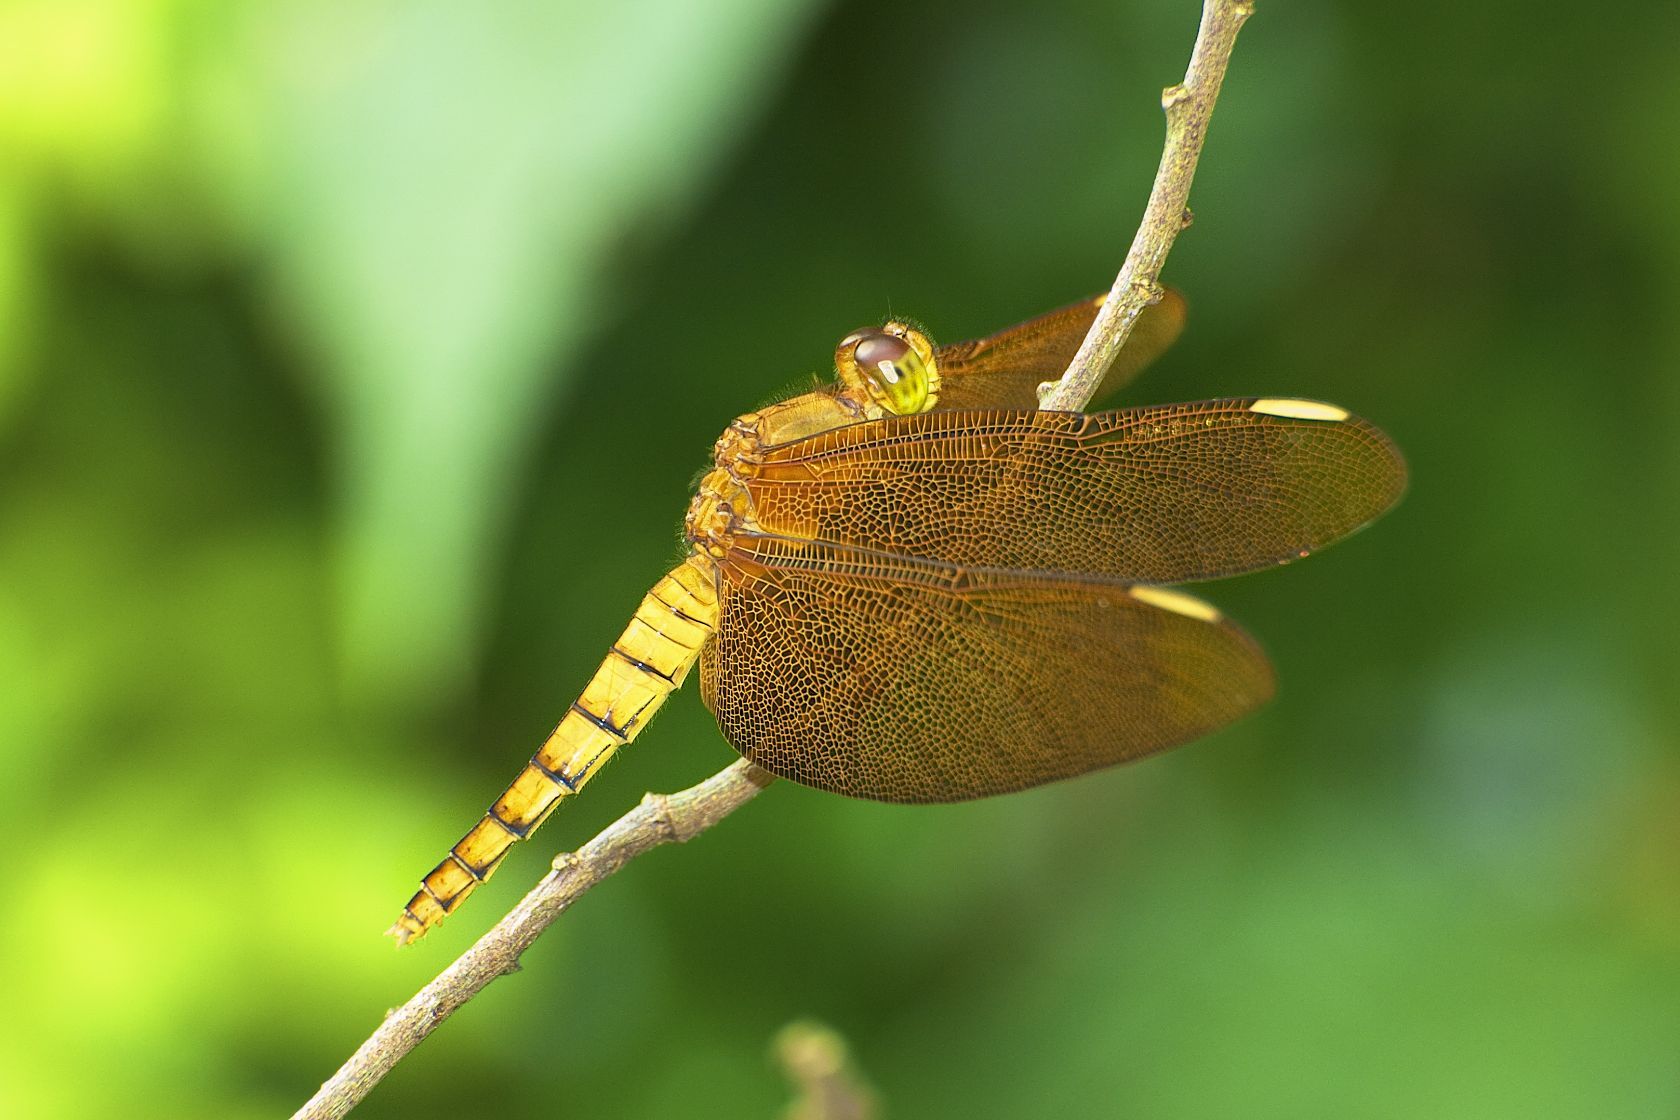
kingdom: Animalia
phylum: Arthropoda
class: Insecta
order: Odonata
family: Libellulidae
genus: Neurothemis
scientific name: Neurothemis fulvia
